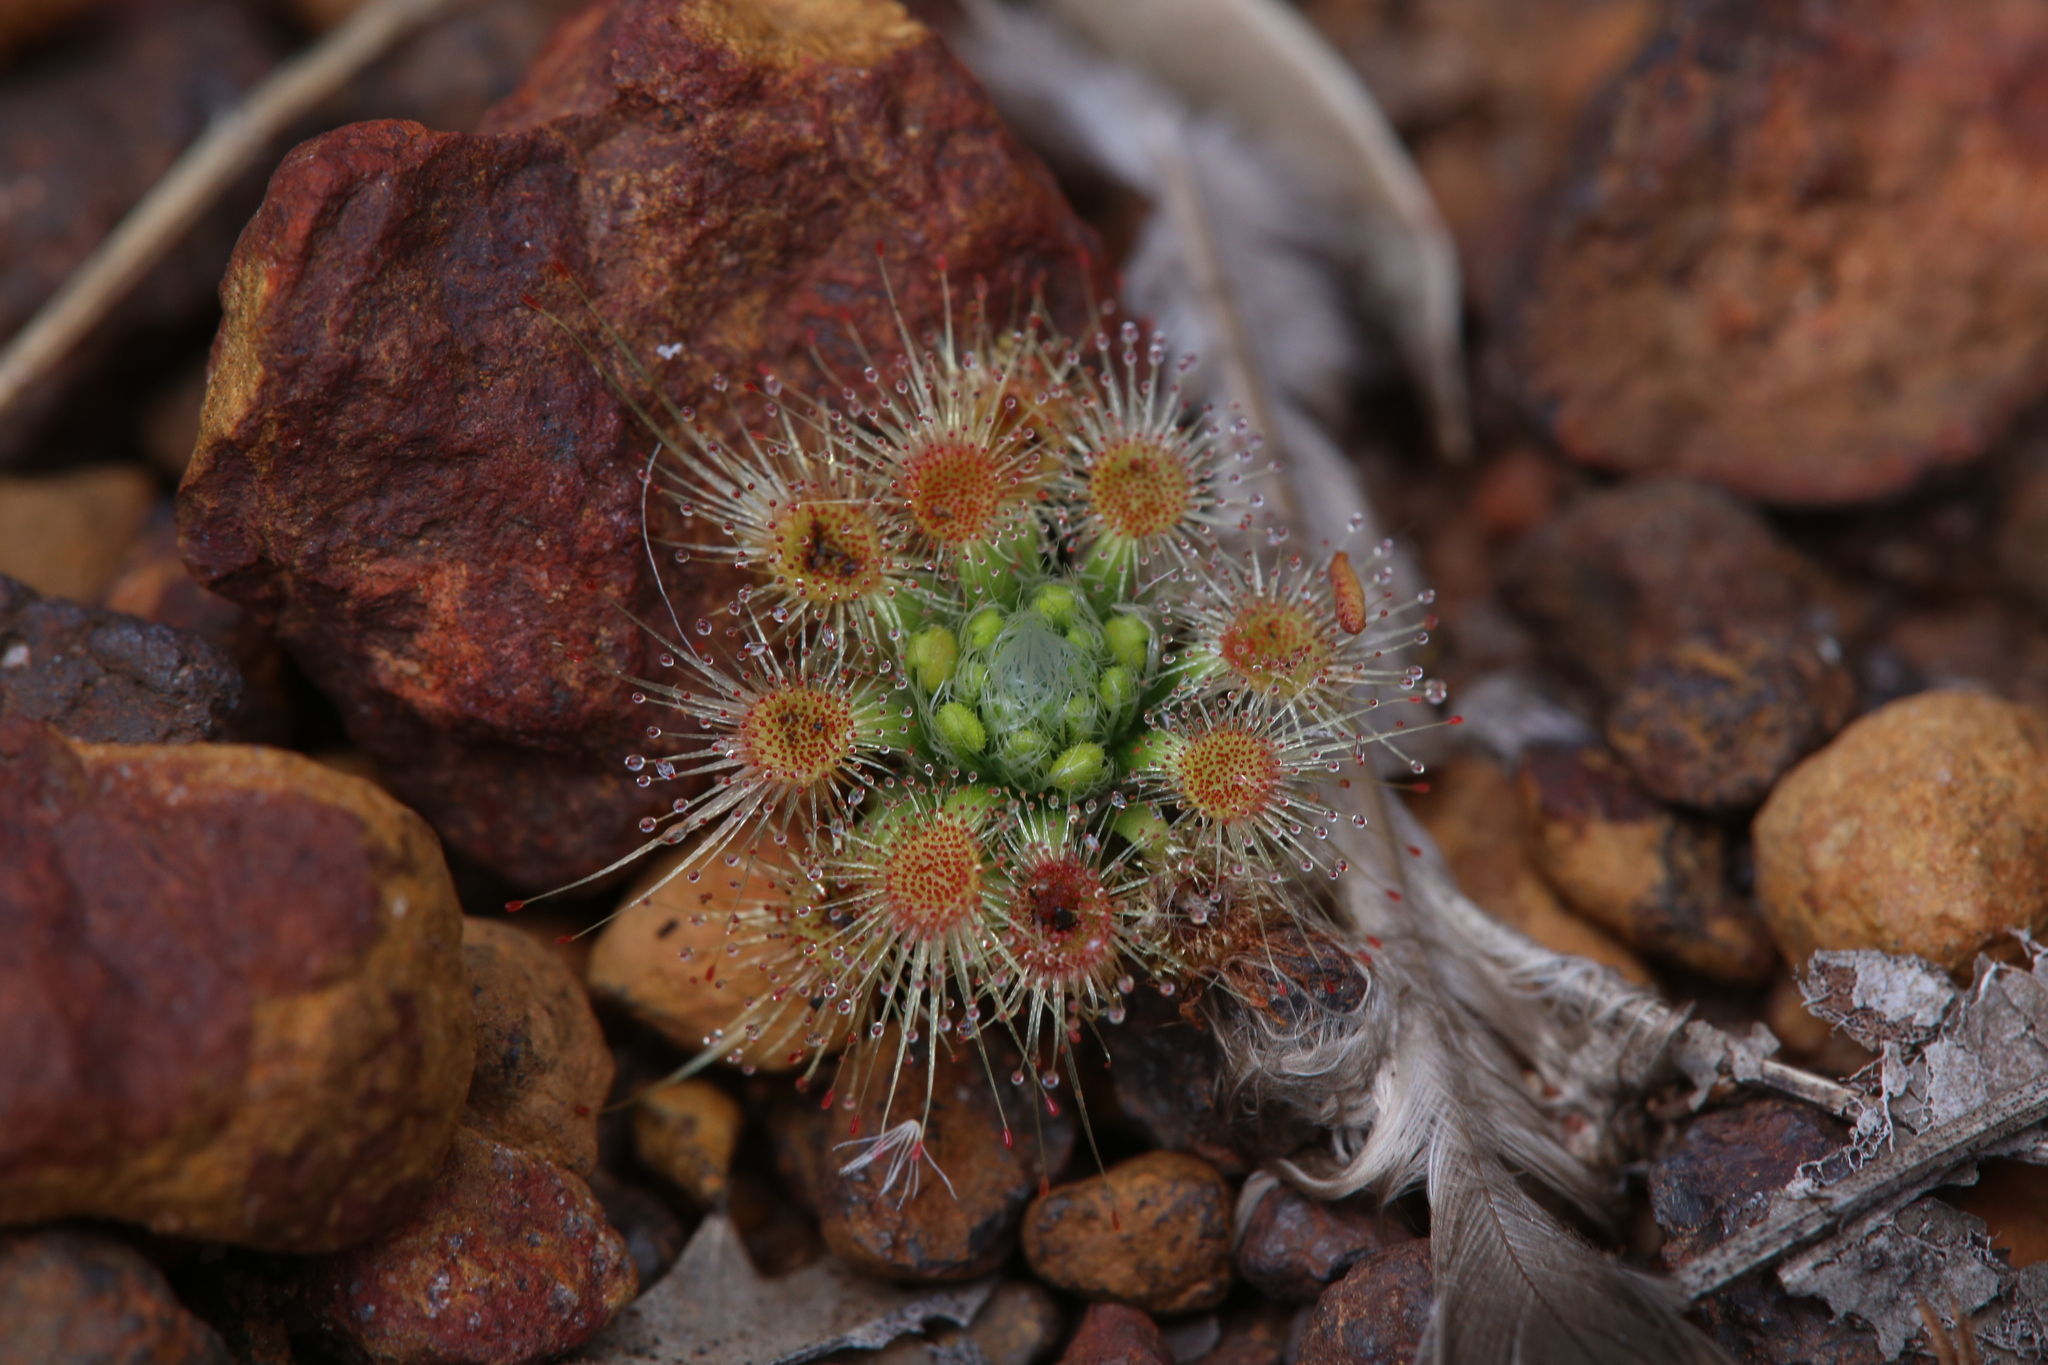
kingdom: Plantae
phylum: Tracheophyta
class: Magnoliopsida
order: Caryophyllales
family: Droseraceae
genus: Drosera
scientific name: Drosera hyperostigma
